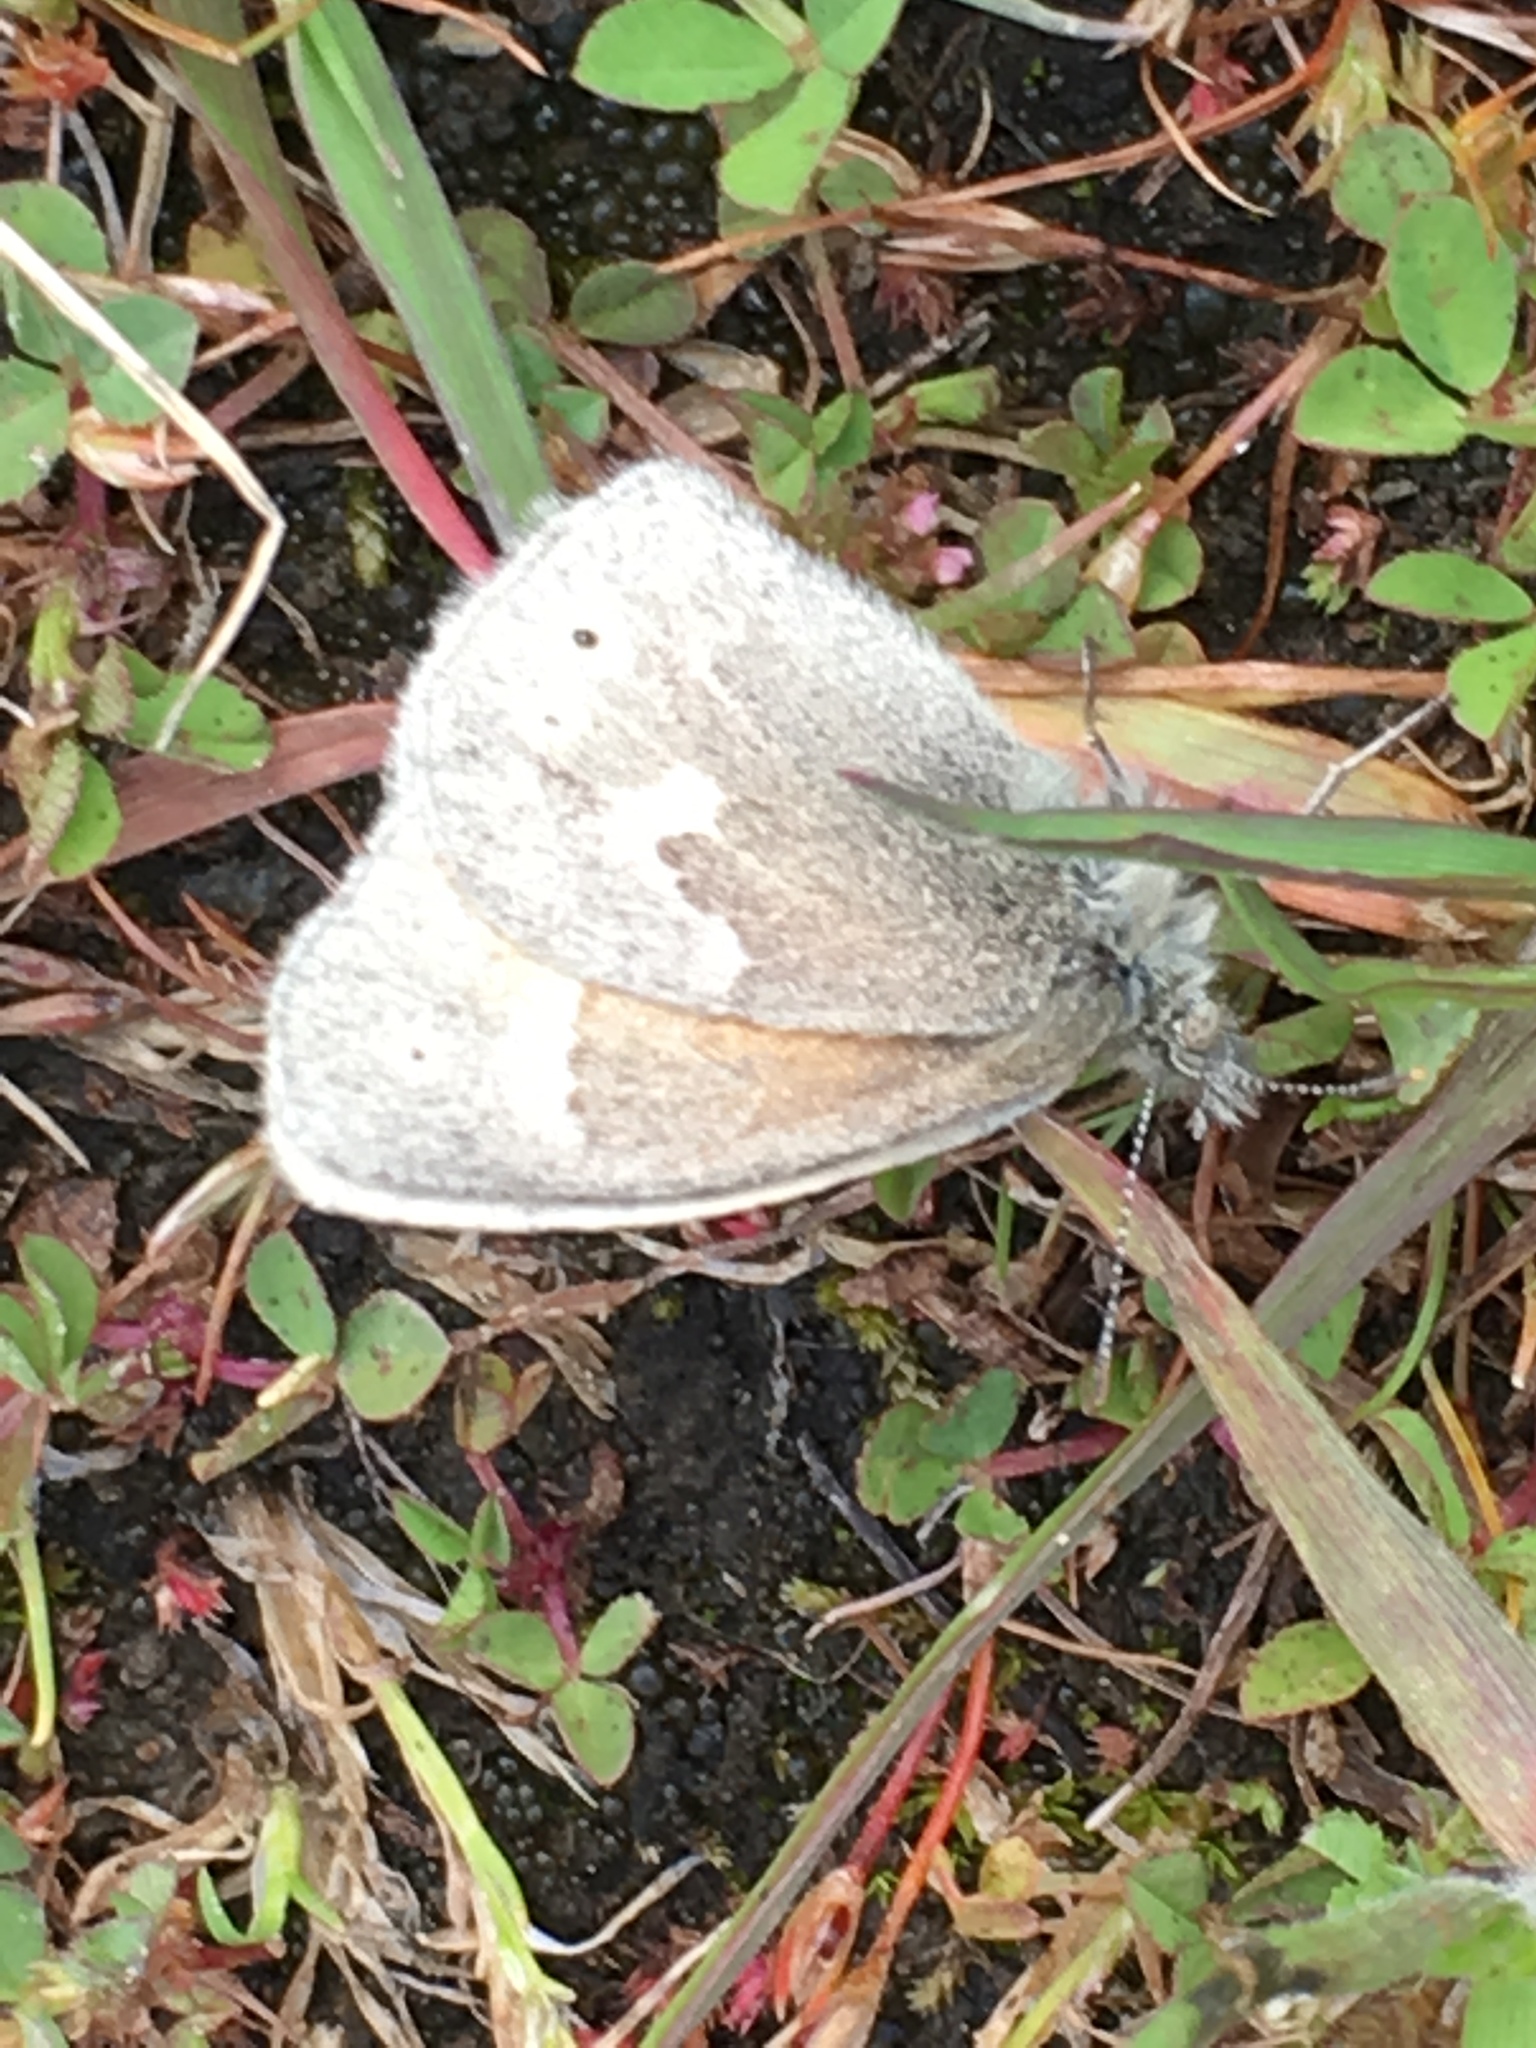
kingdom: Animalia
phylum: Arthropoda
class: Insecta
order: Lepidoptera
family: Nymphalidae
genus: Coenonympha
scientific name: Coenonympha california
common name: Common ringlet
